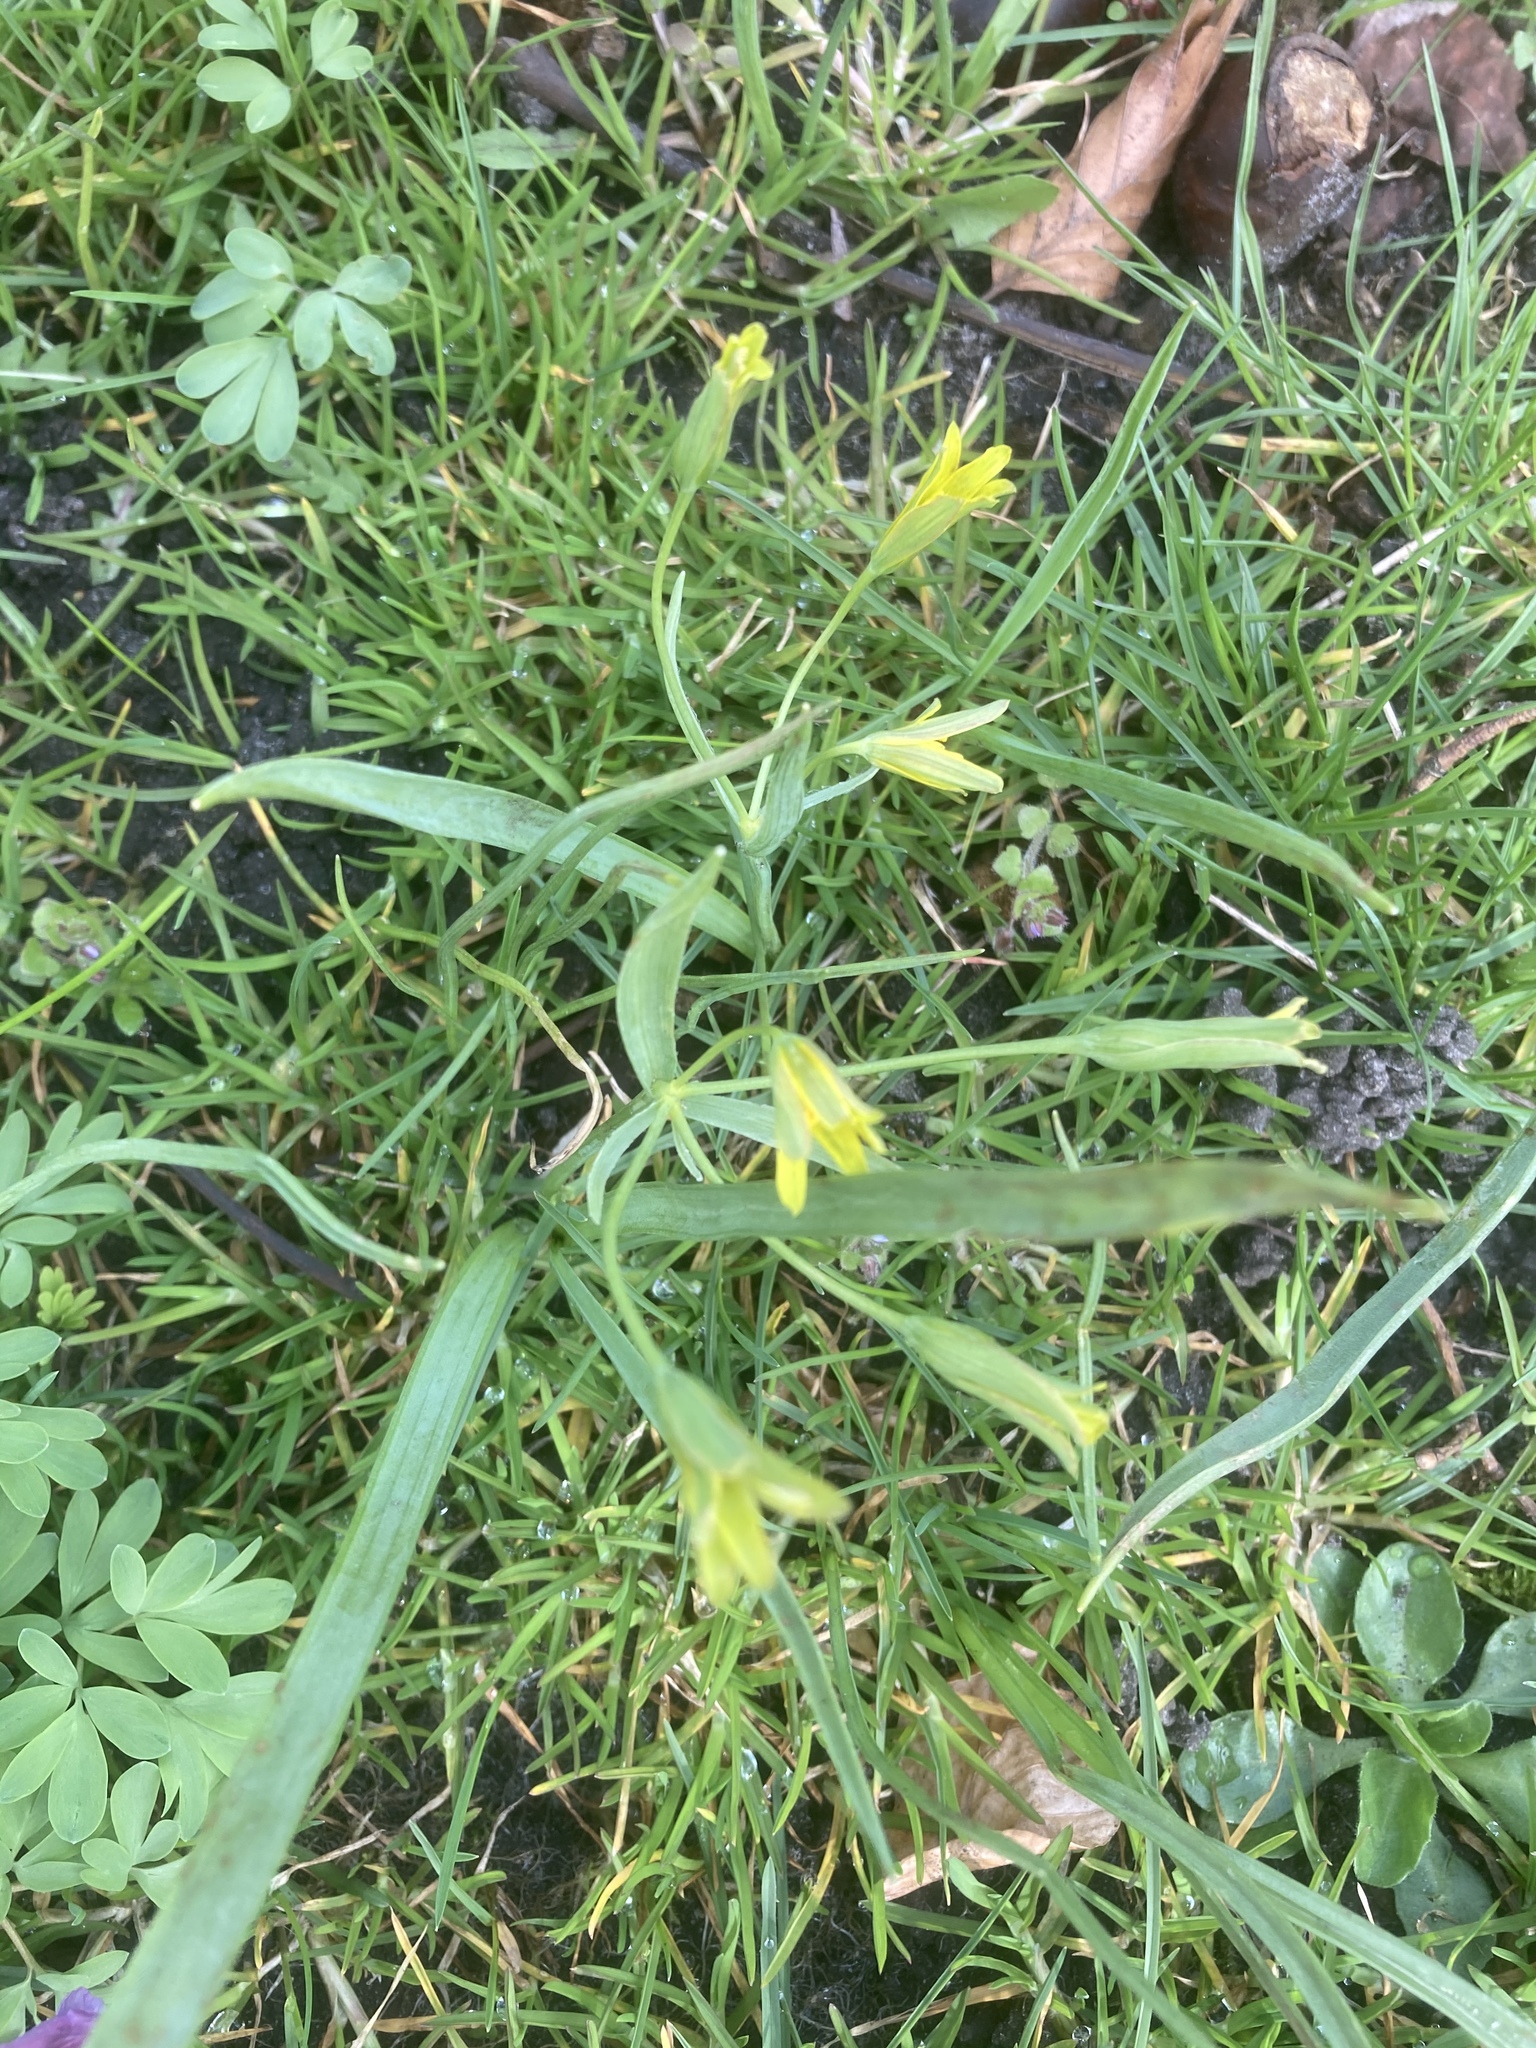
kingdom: Plantae
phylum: Tracheophyta
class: Liliopsida
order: Liliales
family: Liliaceae
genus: Gagea
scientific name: Gagea lutea
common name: Yellow star-of-bethlehem
